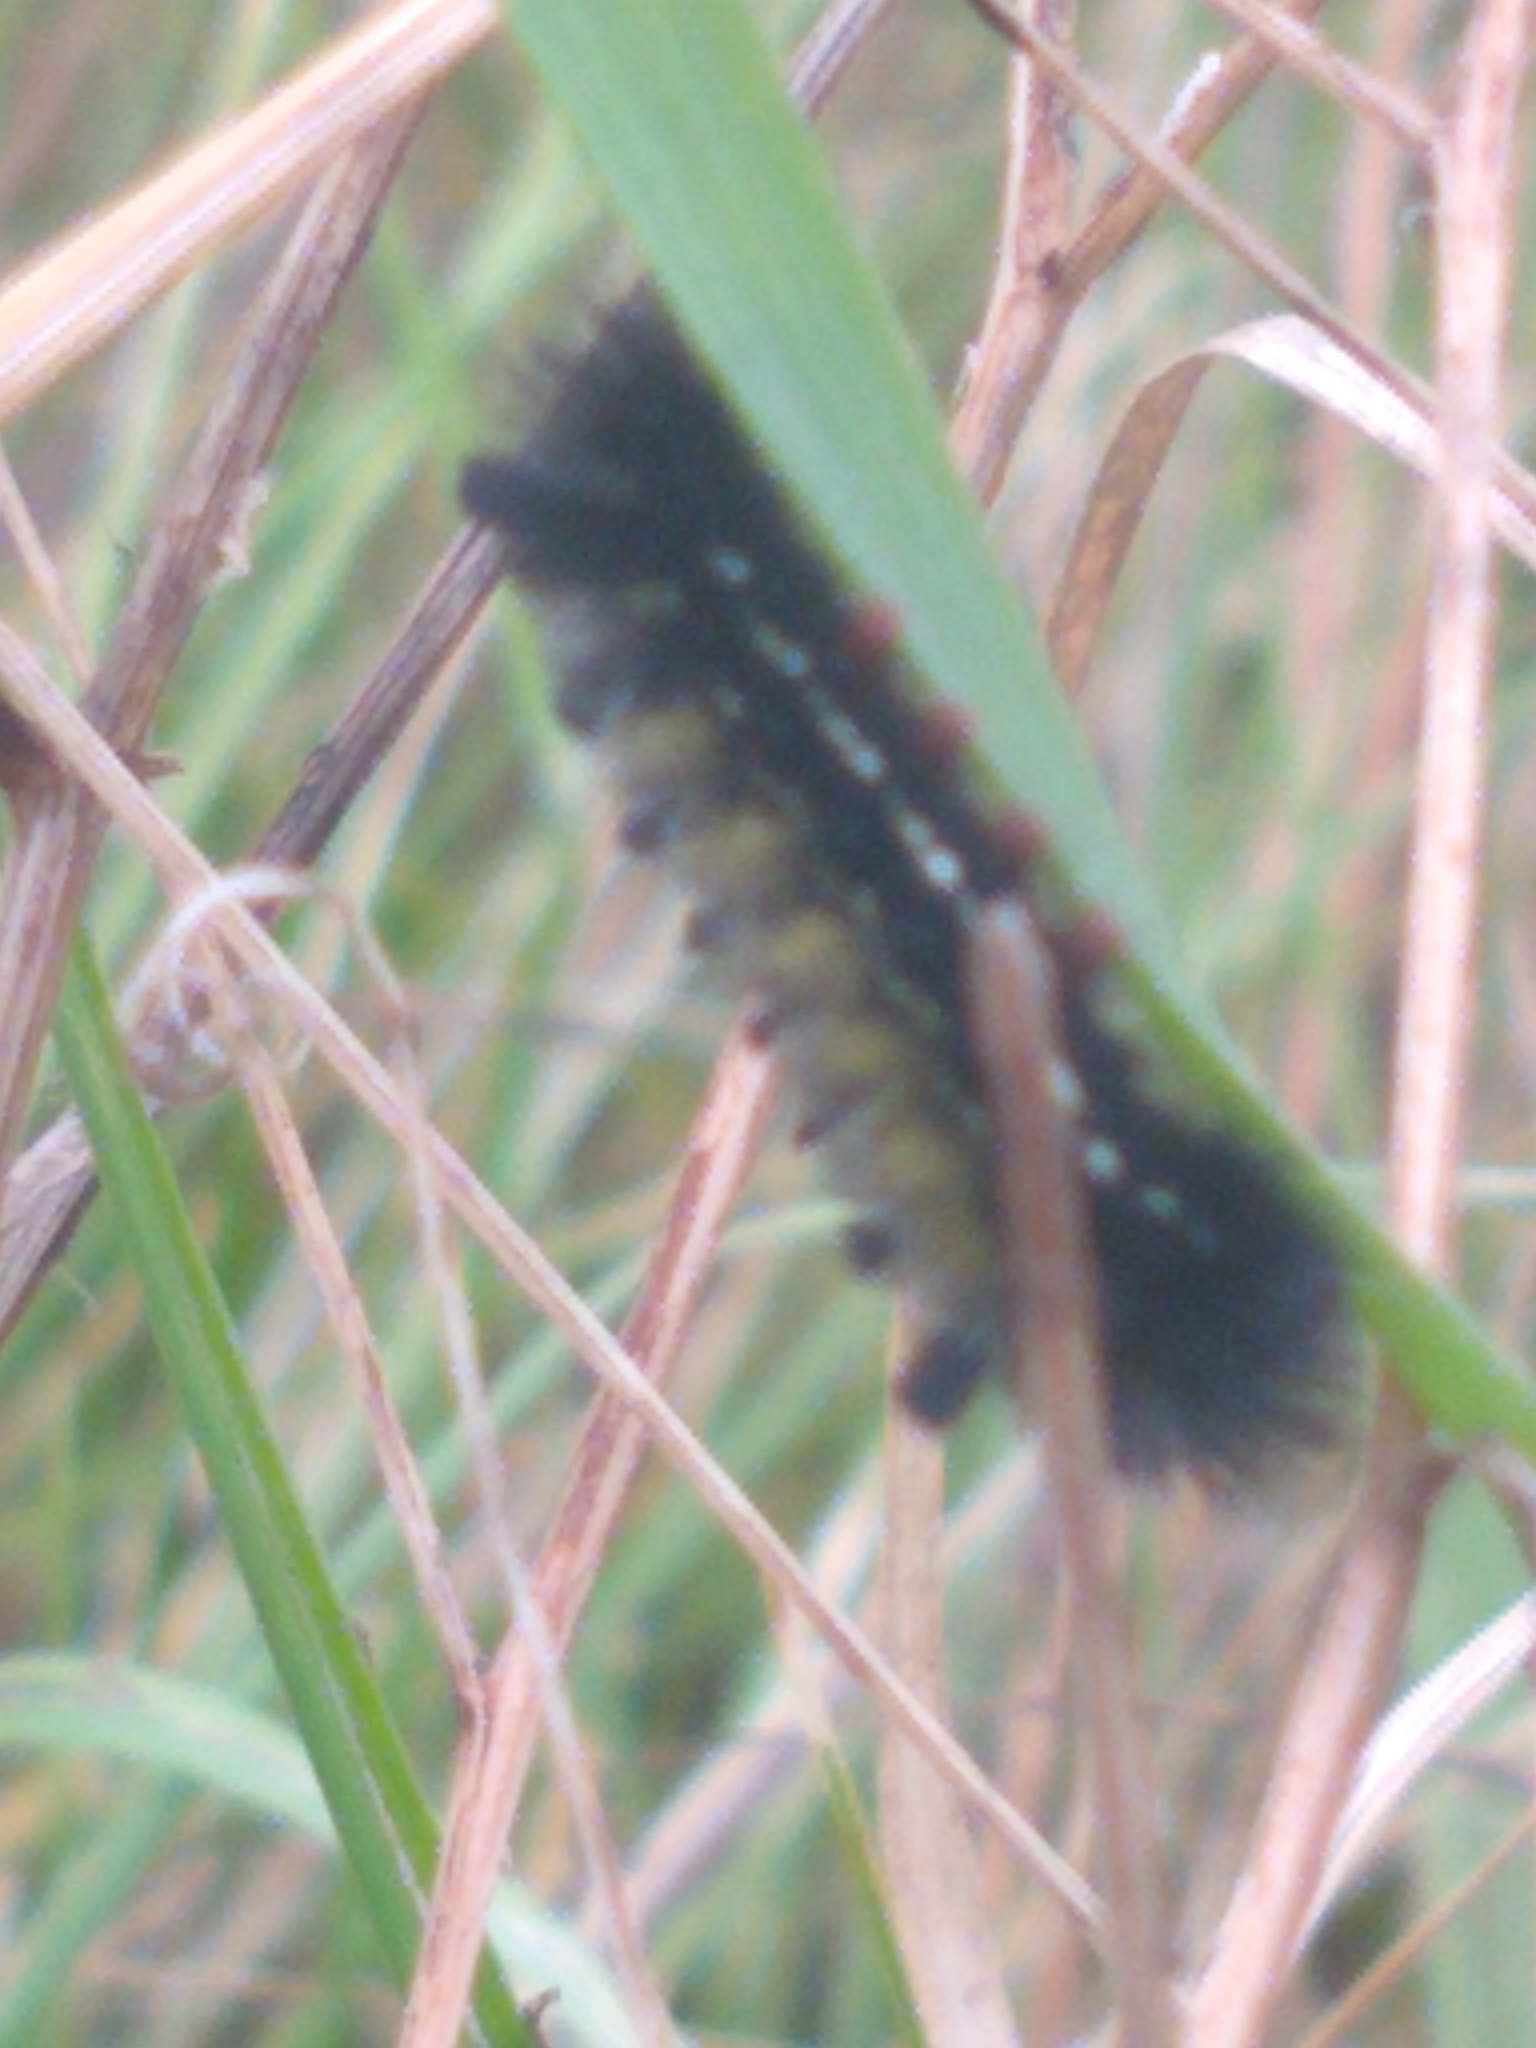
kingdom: Animalia
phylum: Arthropoda
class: Insecta
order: Lepidoptera
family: Erebidae
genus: Ctenucha
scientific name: Ctenucha virginica
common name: Virginia ctenucha moth
